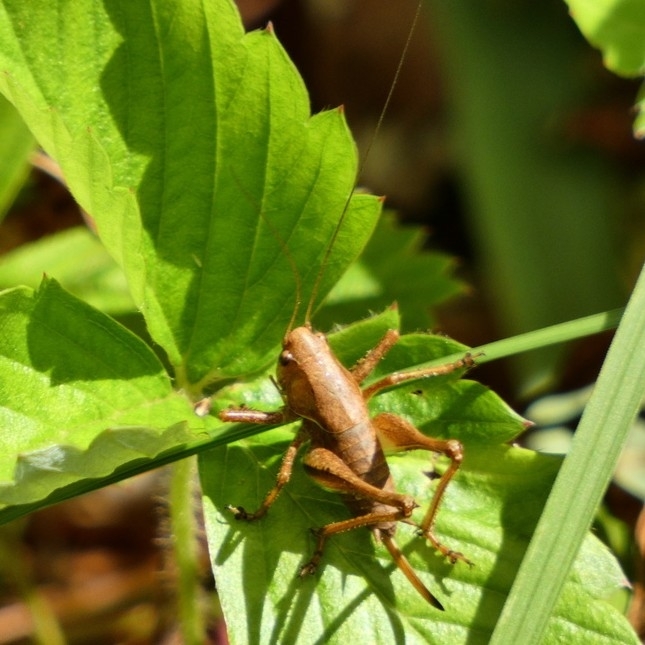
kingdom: Animalia
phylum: Arthropoda
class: Insecta
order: Orthoptera
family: Tettigoniidae
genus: Pholidoptera
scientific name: Pholidoptera griseoaptera
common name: Dark bush-cricket
